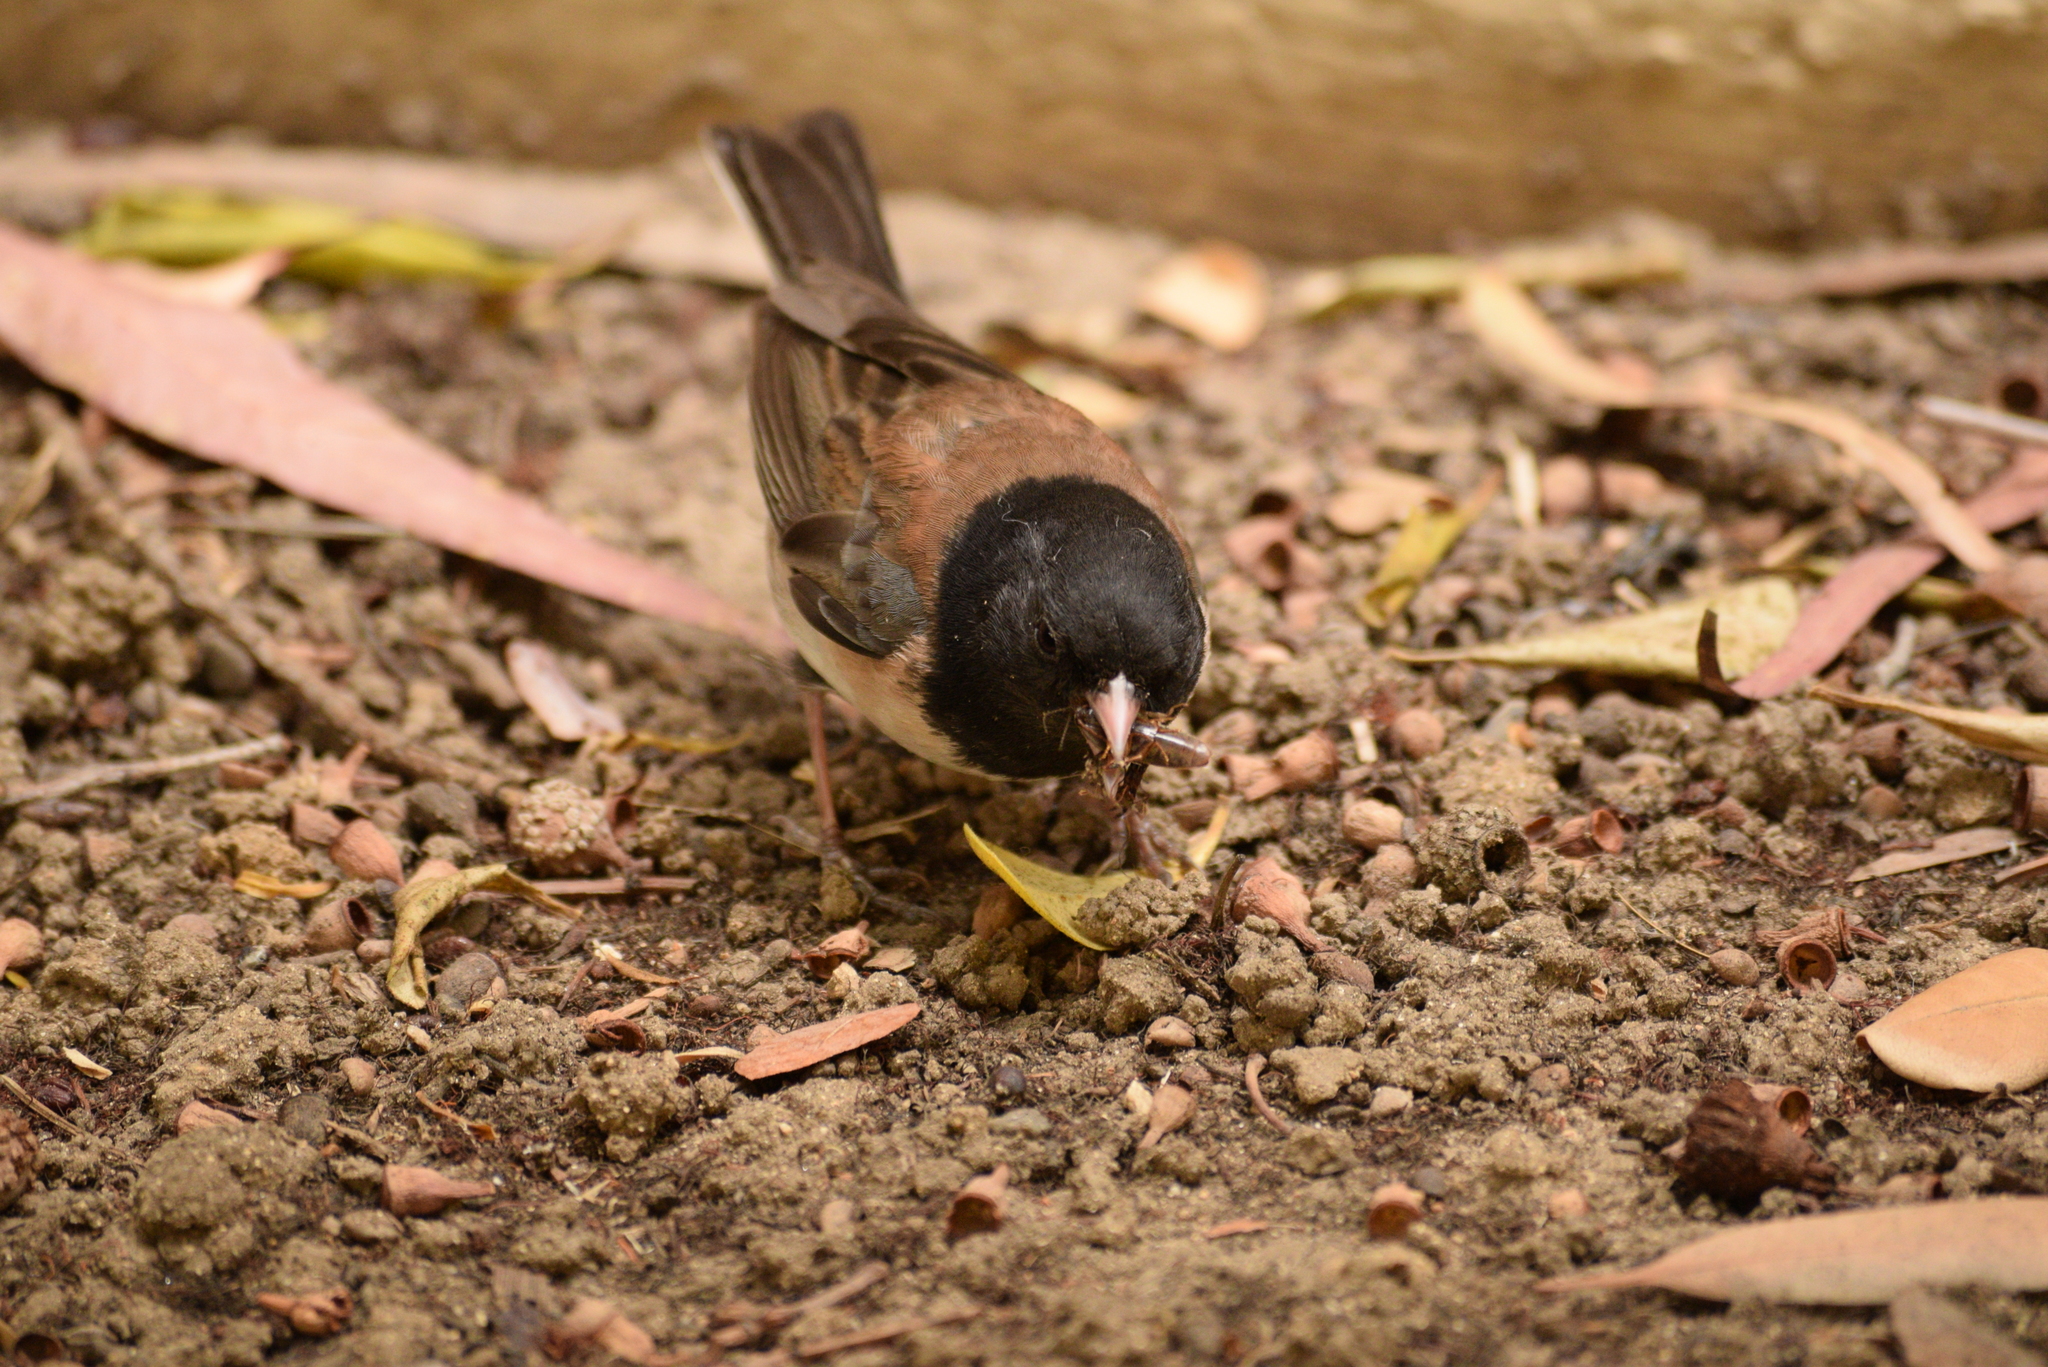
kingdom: Animalia
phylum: Chordata
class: Aves
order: Passeriformes
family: Passerellidae
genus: Junco
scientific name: Junco hyemalis
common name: Dark-eyed junco
